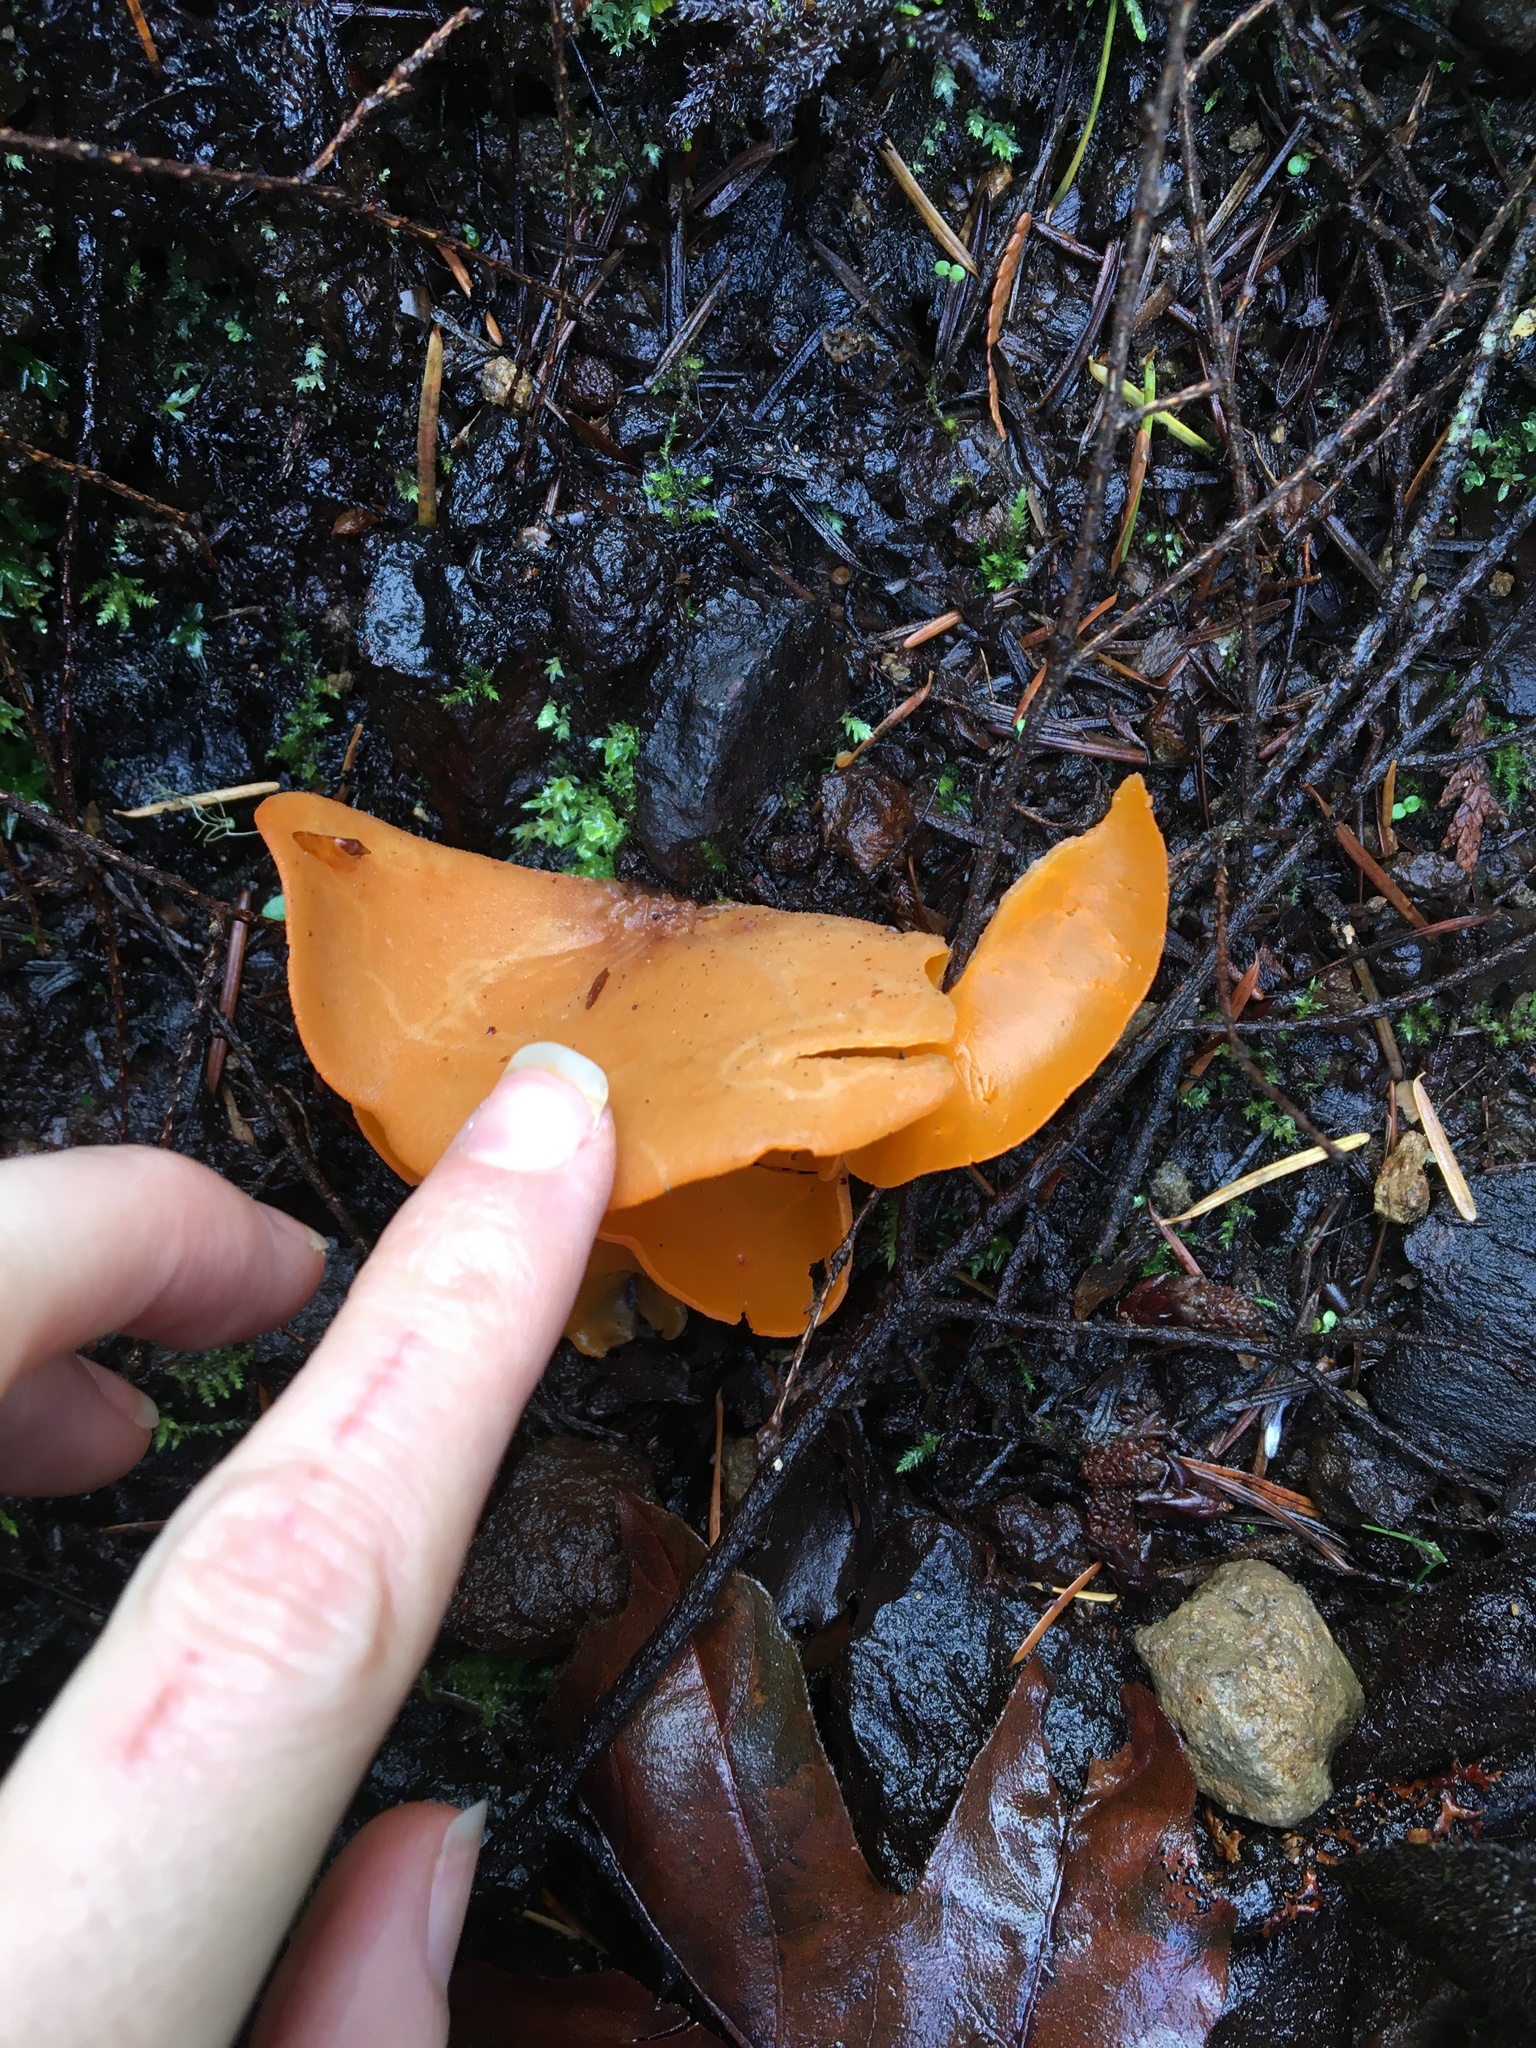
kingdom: Fungi
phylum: Ascomycota
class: Pezizomycetes
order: Pezizales
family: Pyronemataceae
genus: Aleuria
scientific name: Aleuria aurantia
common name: Orange peel fungus
